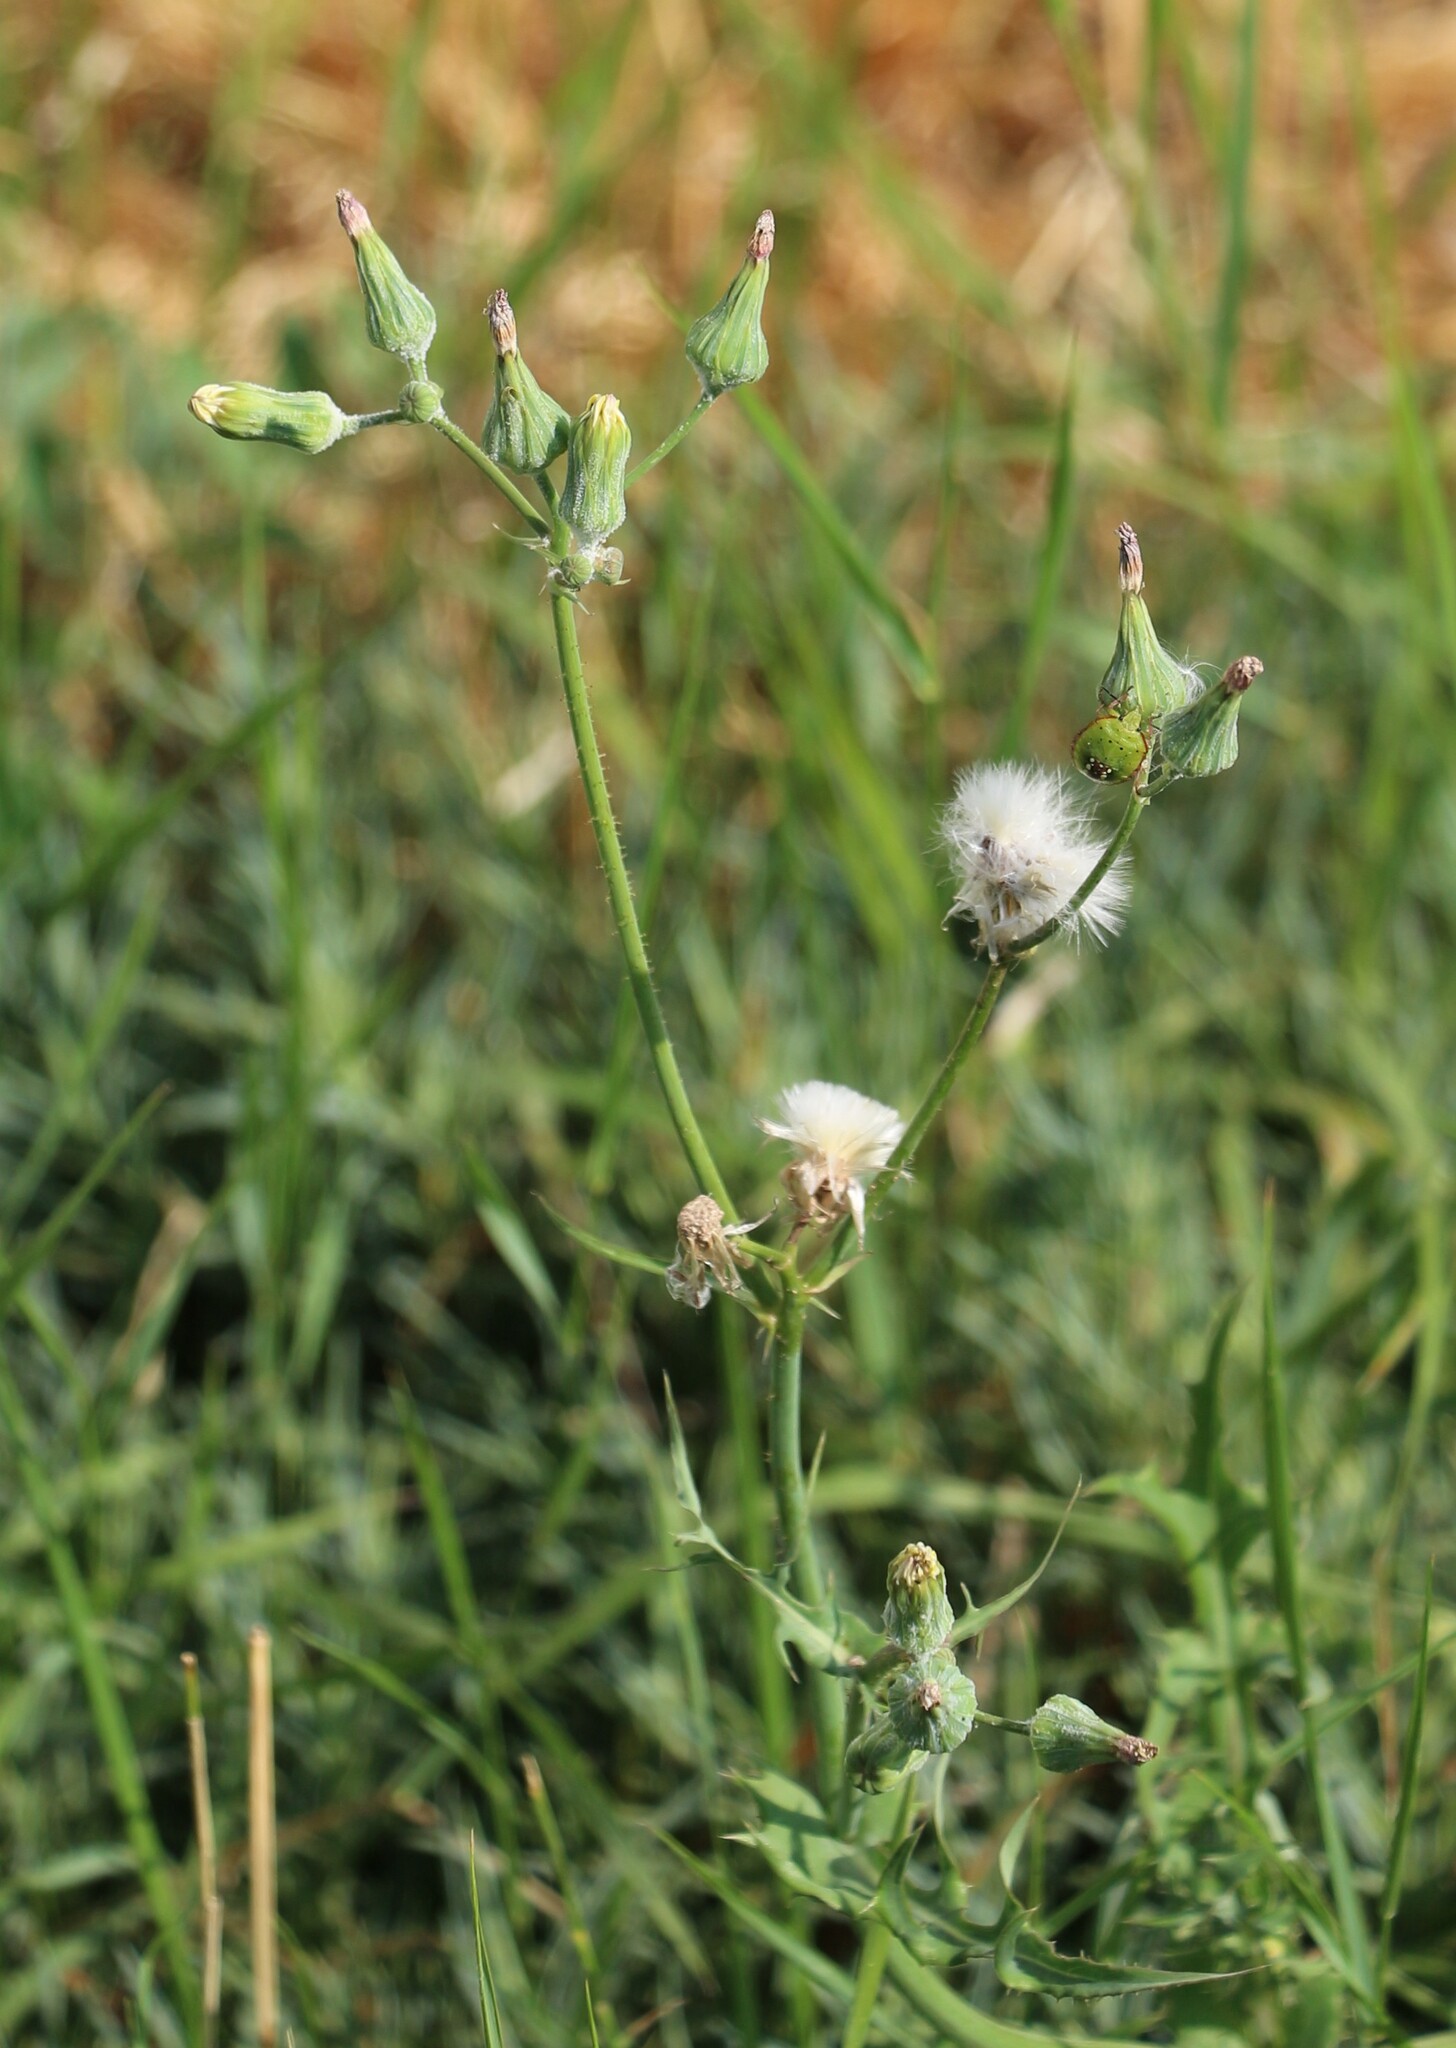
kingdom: Plantae
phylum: Tracheophyta
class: Magnoliopsida
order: Asterales
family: Asteraceae
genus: Sonchus
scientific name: Sonchus oleraceus
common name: Common sowthistle
